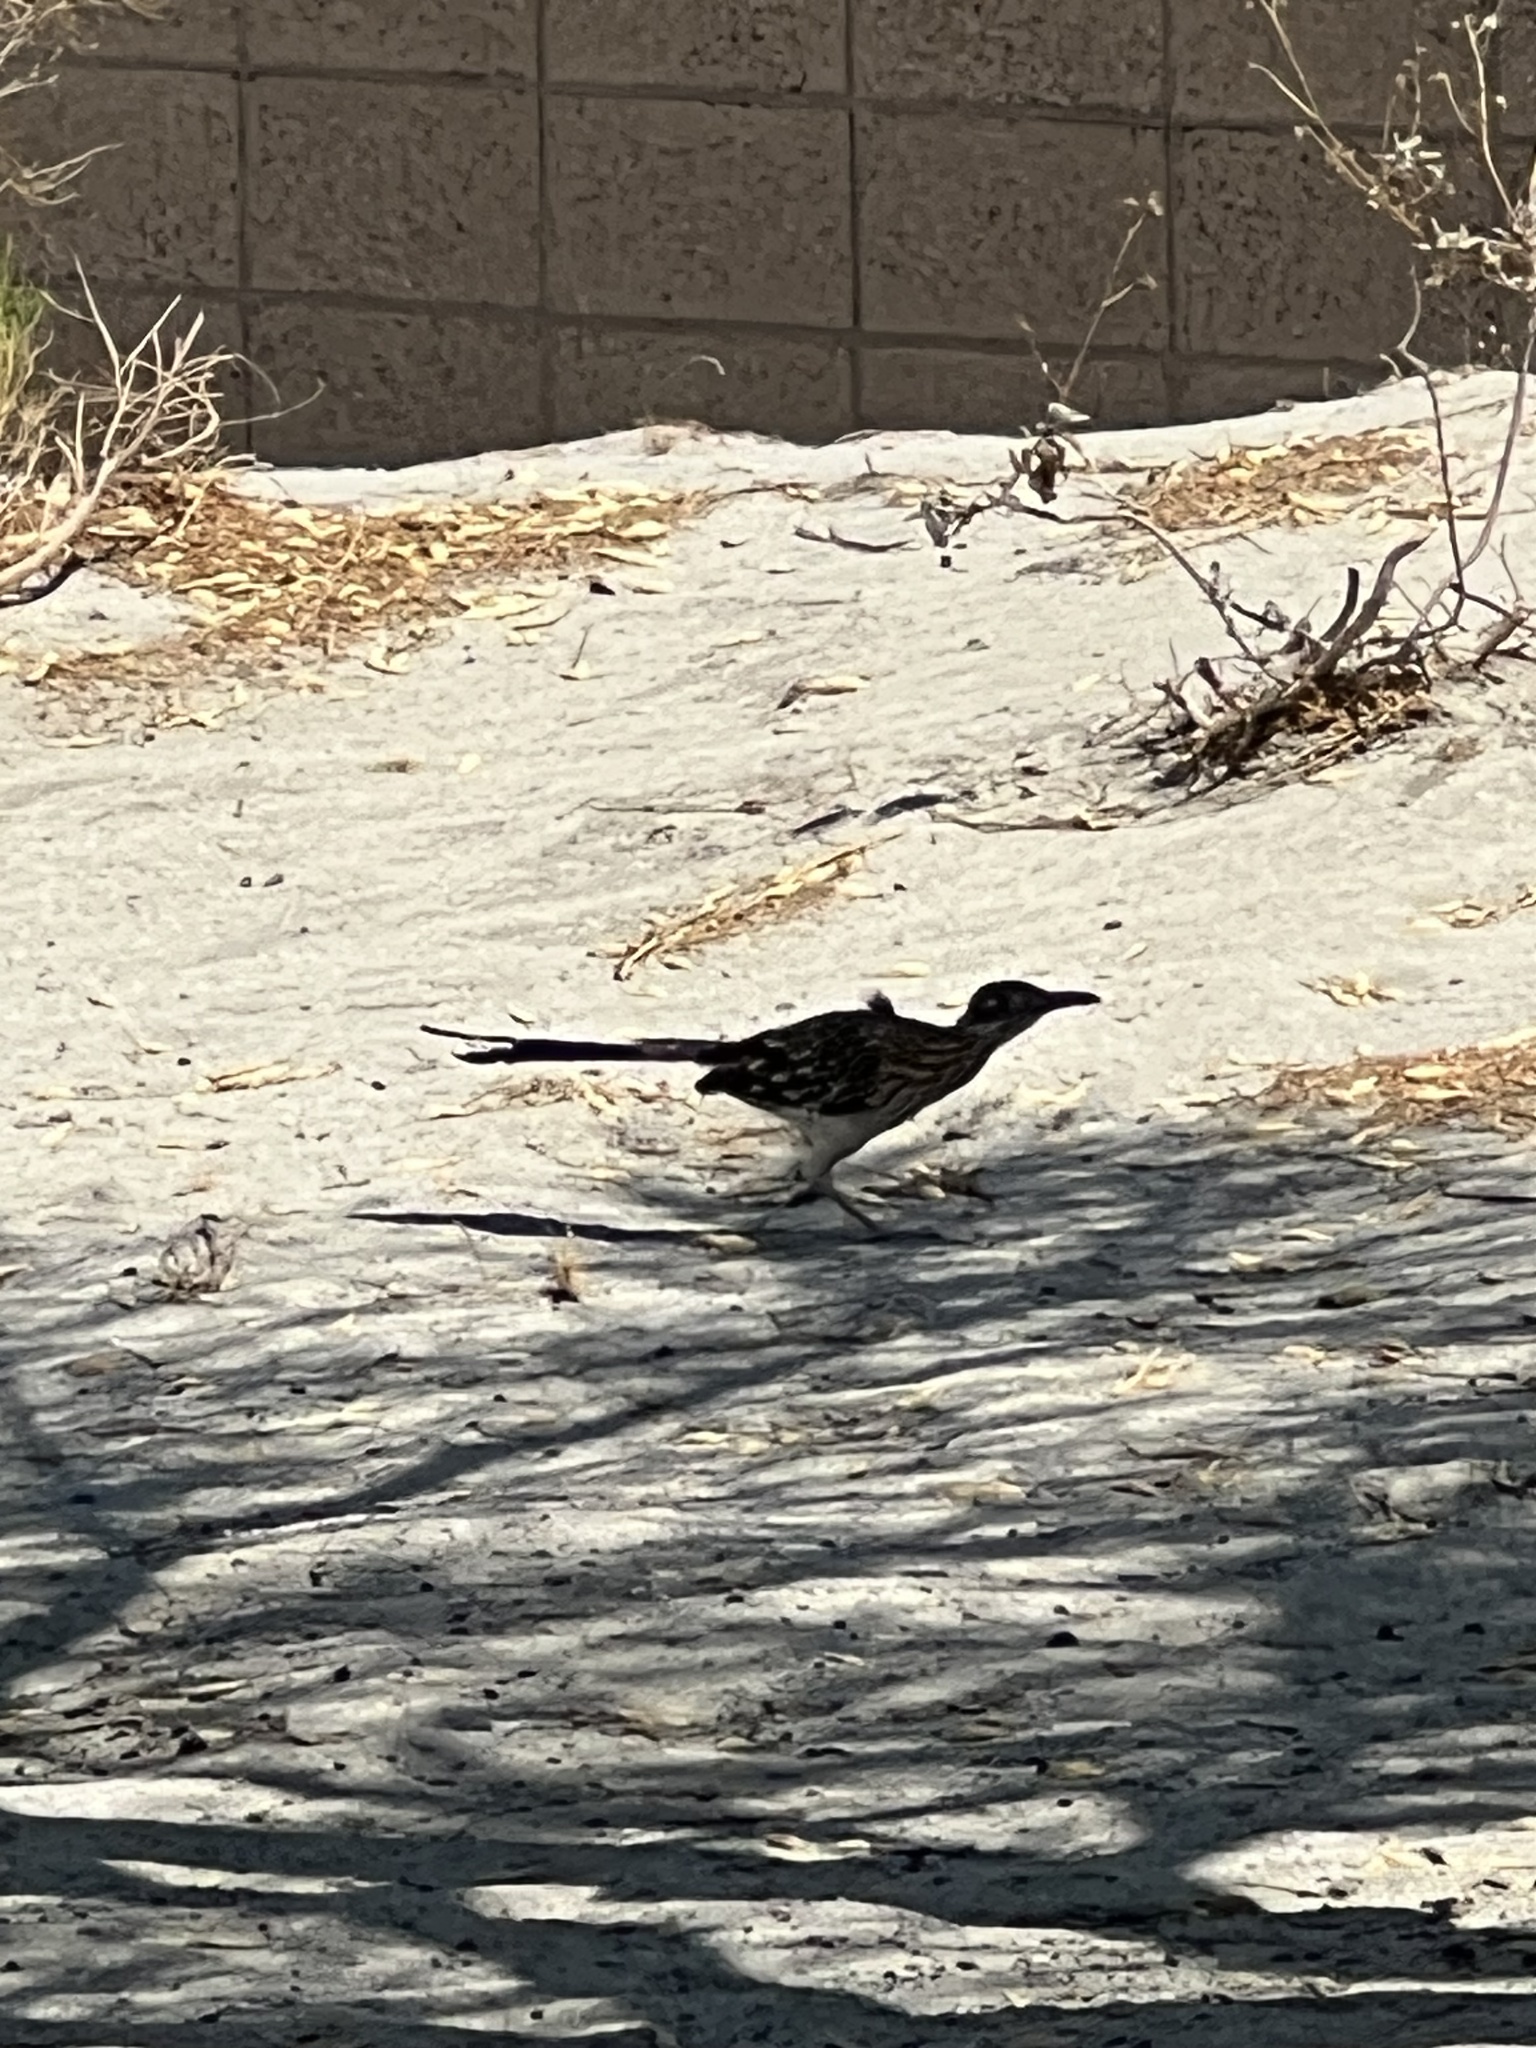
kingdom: Animalia
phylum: Chordata
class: Aves
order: Cuculiformes
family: Cuculidae
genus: Geococcyx
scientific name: Geococcyx californianus
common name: Greater roadrunner
